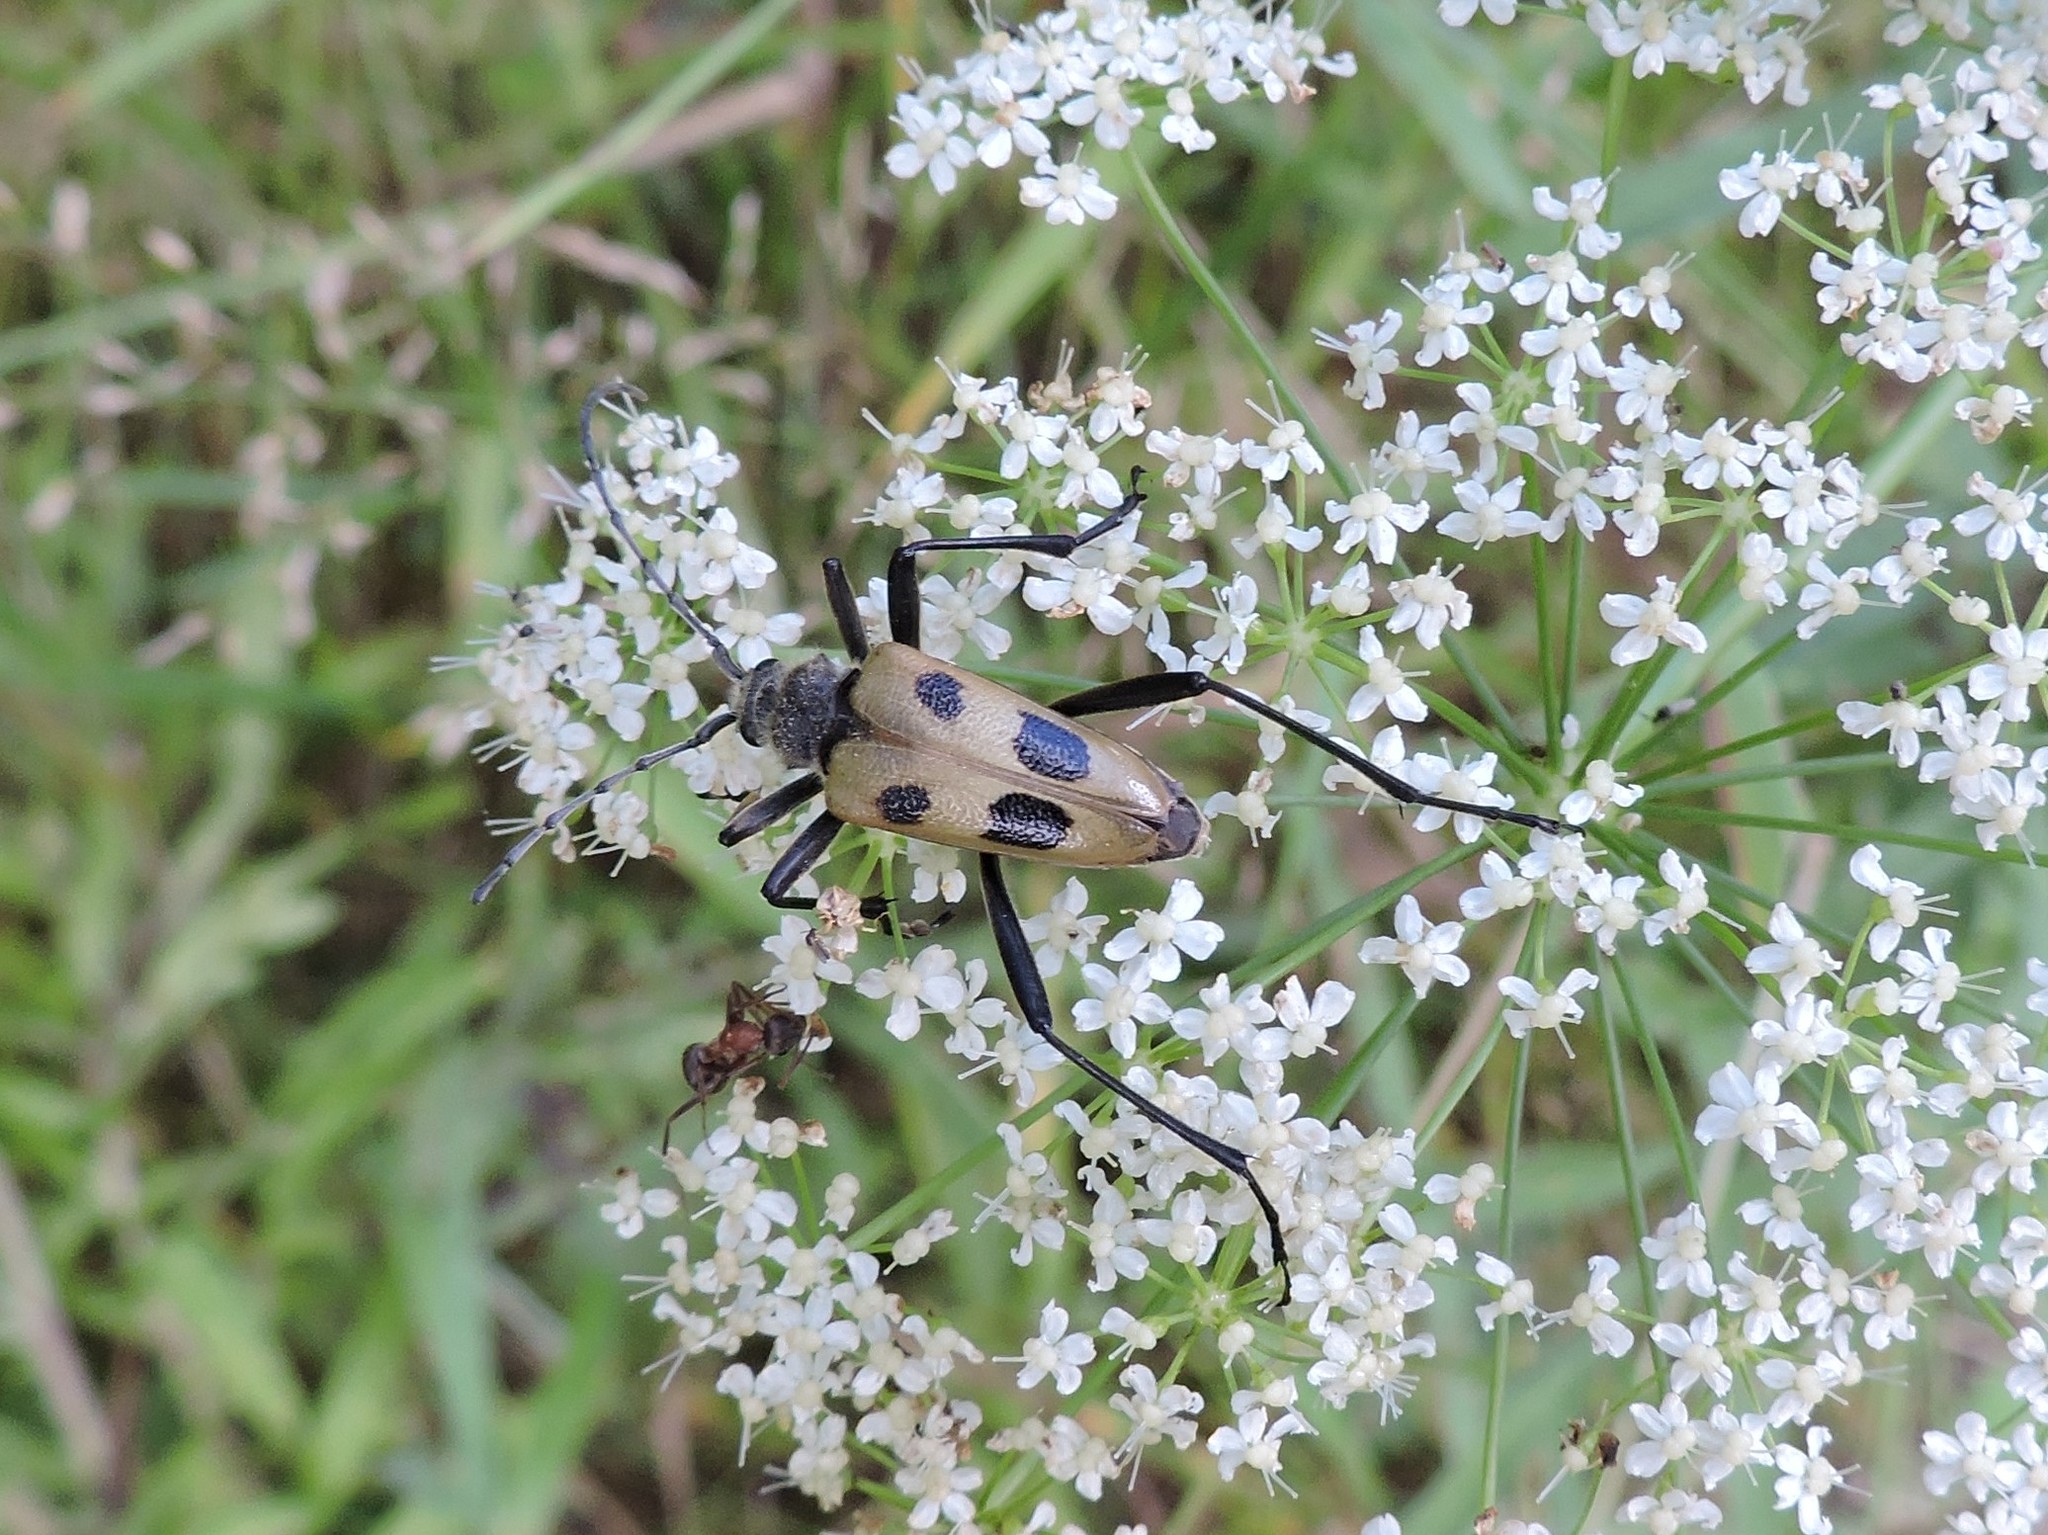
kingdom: Animalia
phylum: Arthropoda
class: Insecta
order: Coleoptera
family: Cerambycidae
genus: Pachyta
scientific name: Pachyta quadrimaculata
